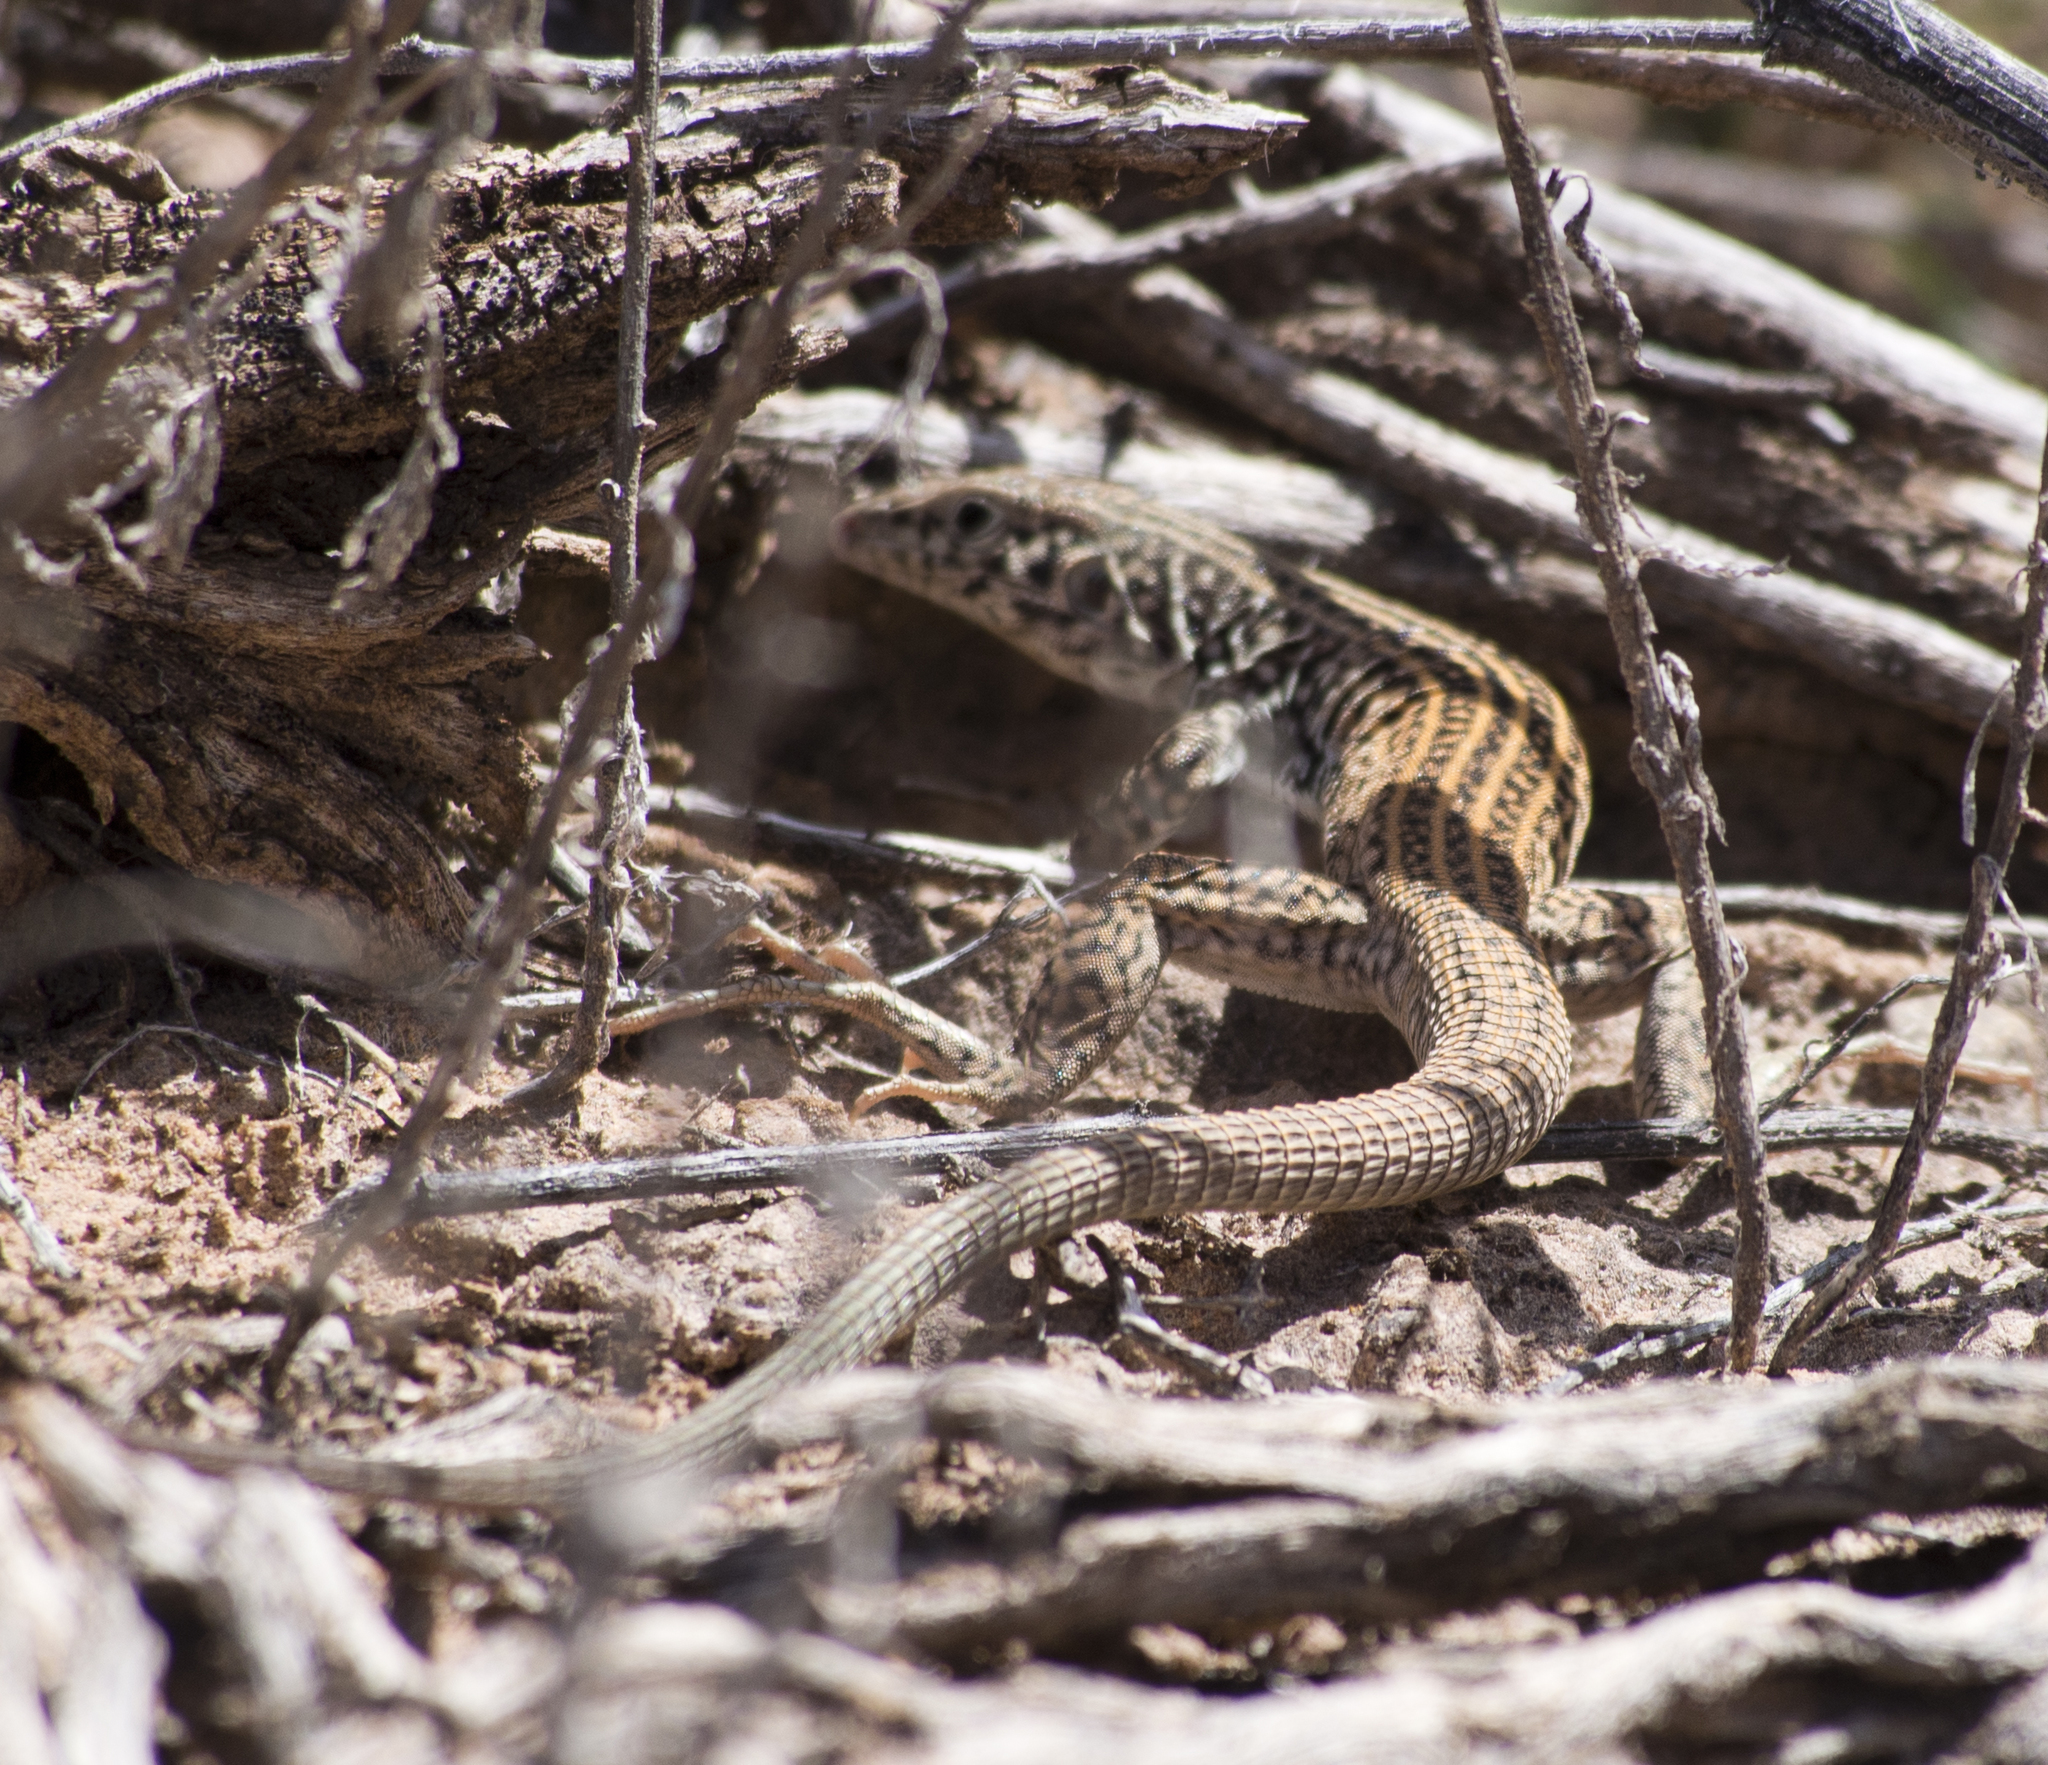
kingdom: Animalia
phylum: Chordata
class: Squamata
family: Teiidae
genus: Aspidoscelis
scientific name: Aspidoscelis tigris
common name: Tiger whiptail
